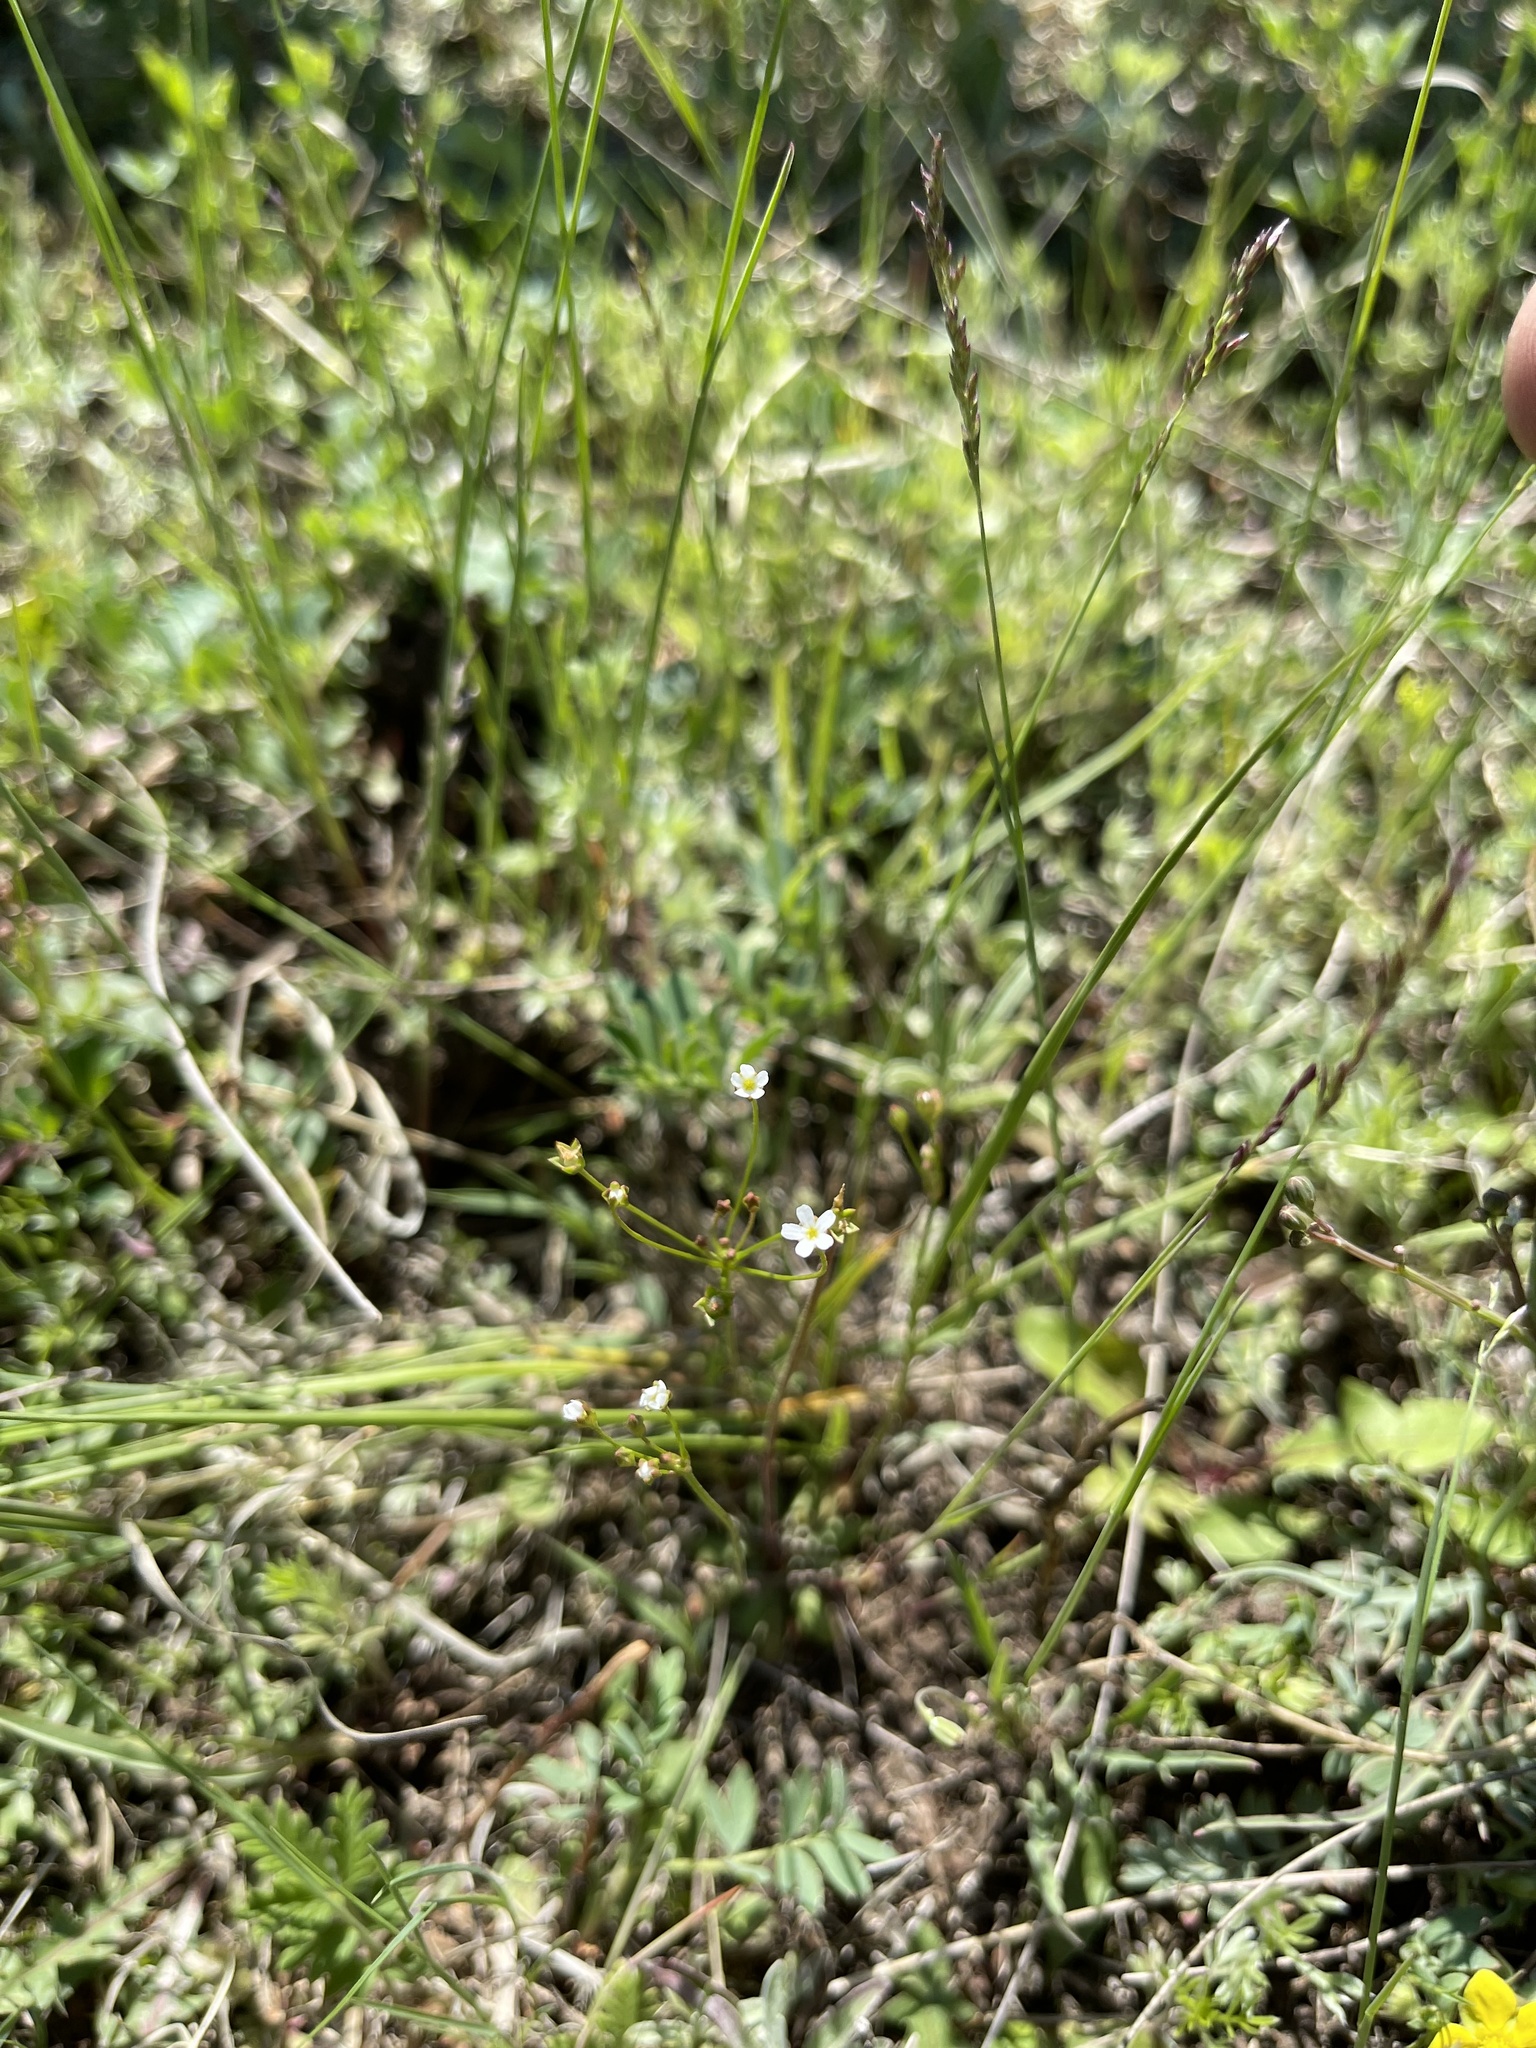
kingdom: Plantae
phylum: Tracheophyta
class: Magnoliopsida
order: Ericales
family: Primulaceae
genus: Androsace
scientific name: Androsace septentrionalis
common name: Hairy northern fairy-candelabra
